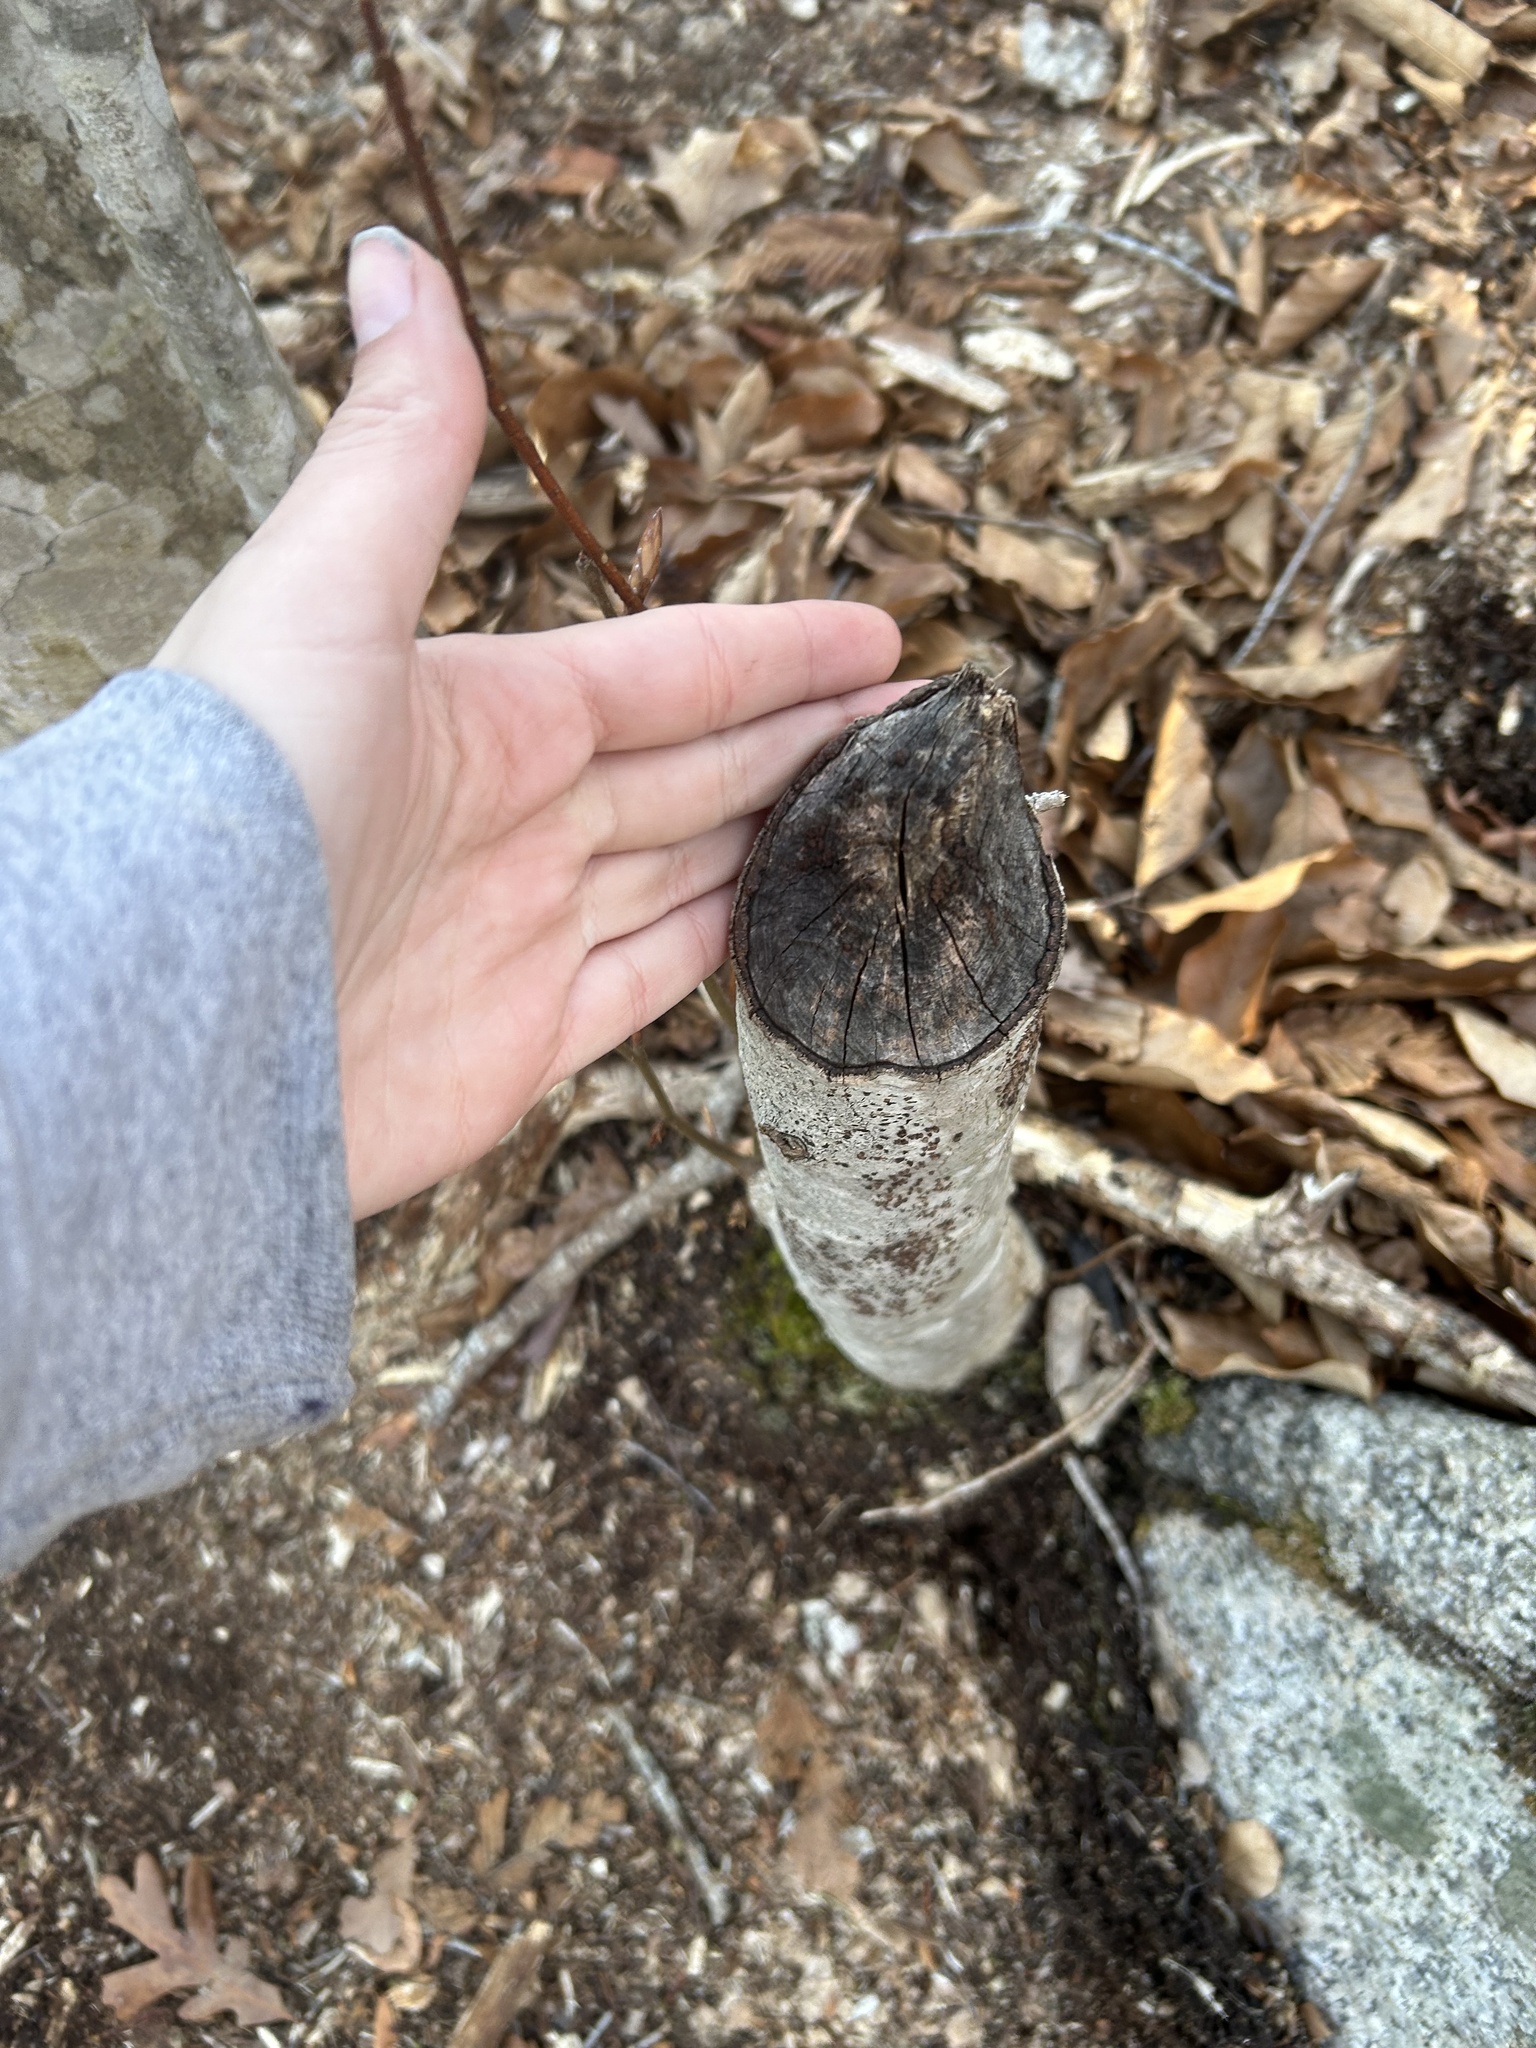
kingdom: Animalia
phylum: Chordata
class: Mammalia
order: Rodentia
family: Castoridae
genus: Castor
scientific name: Castor canadensis
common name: American beaver
